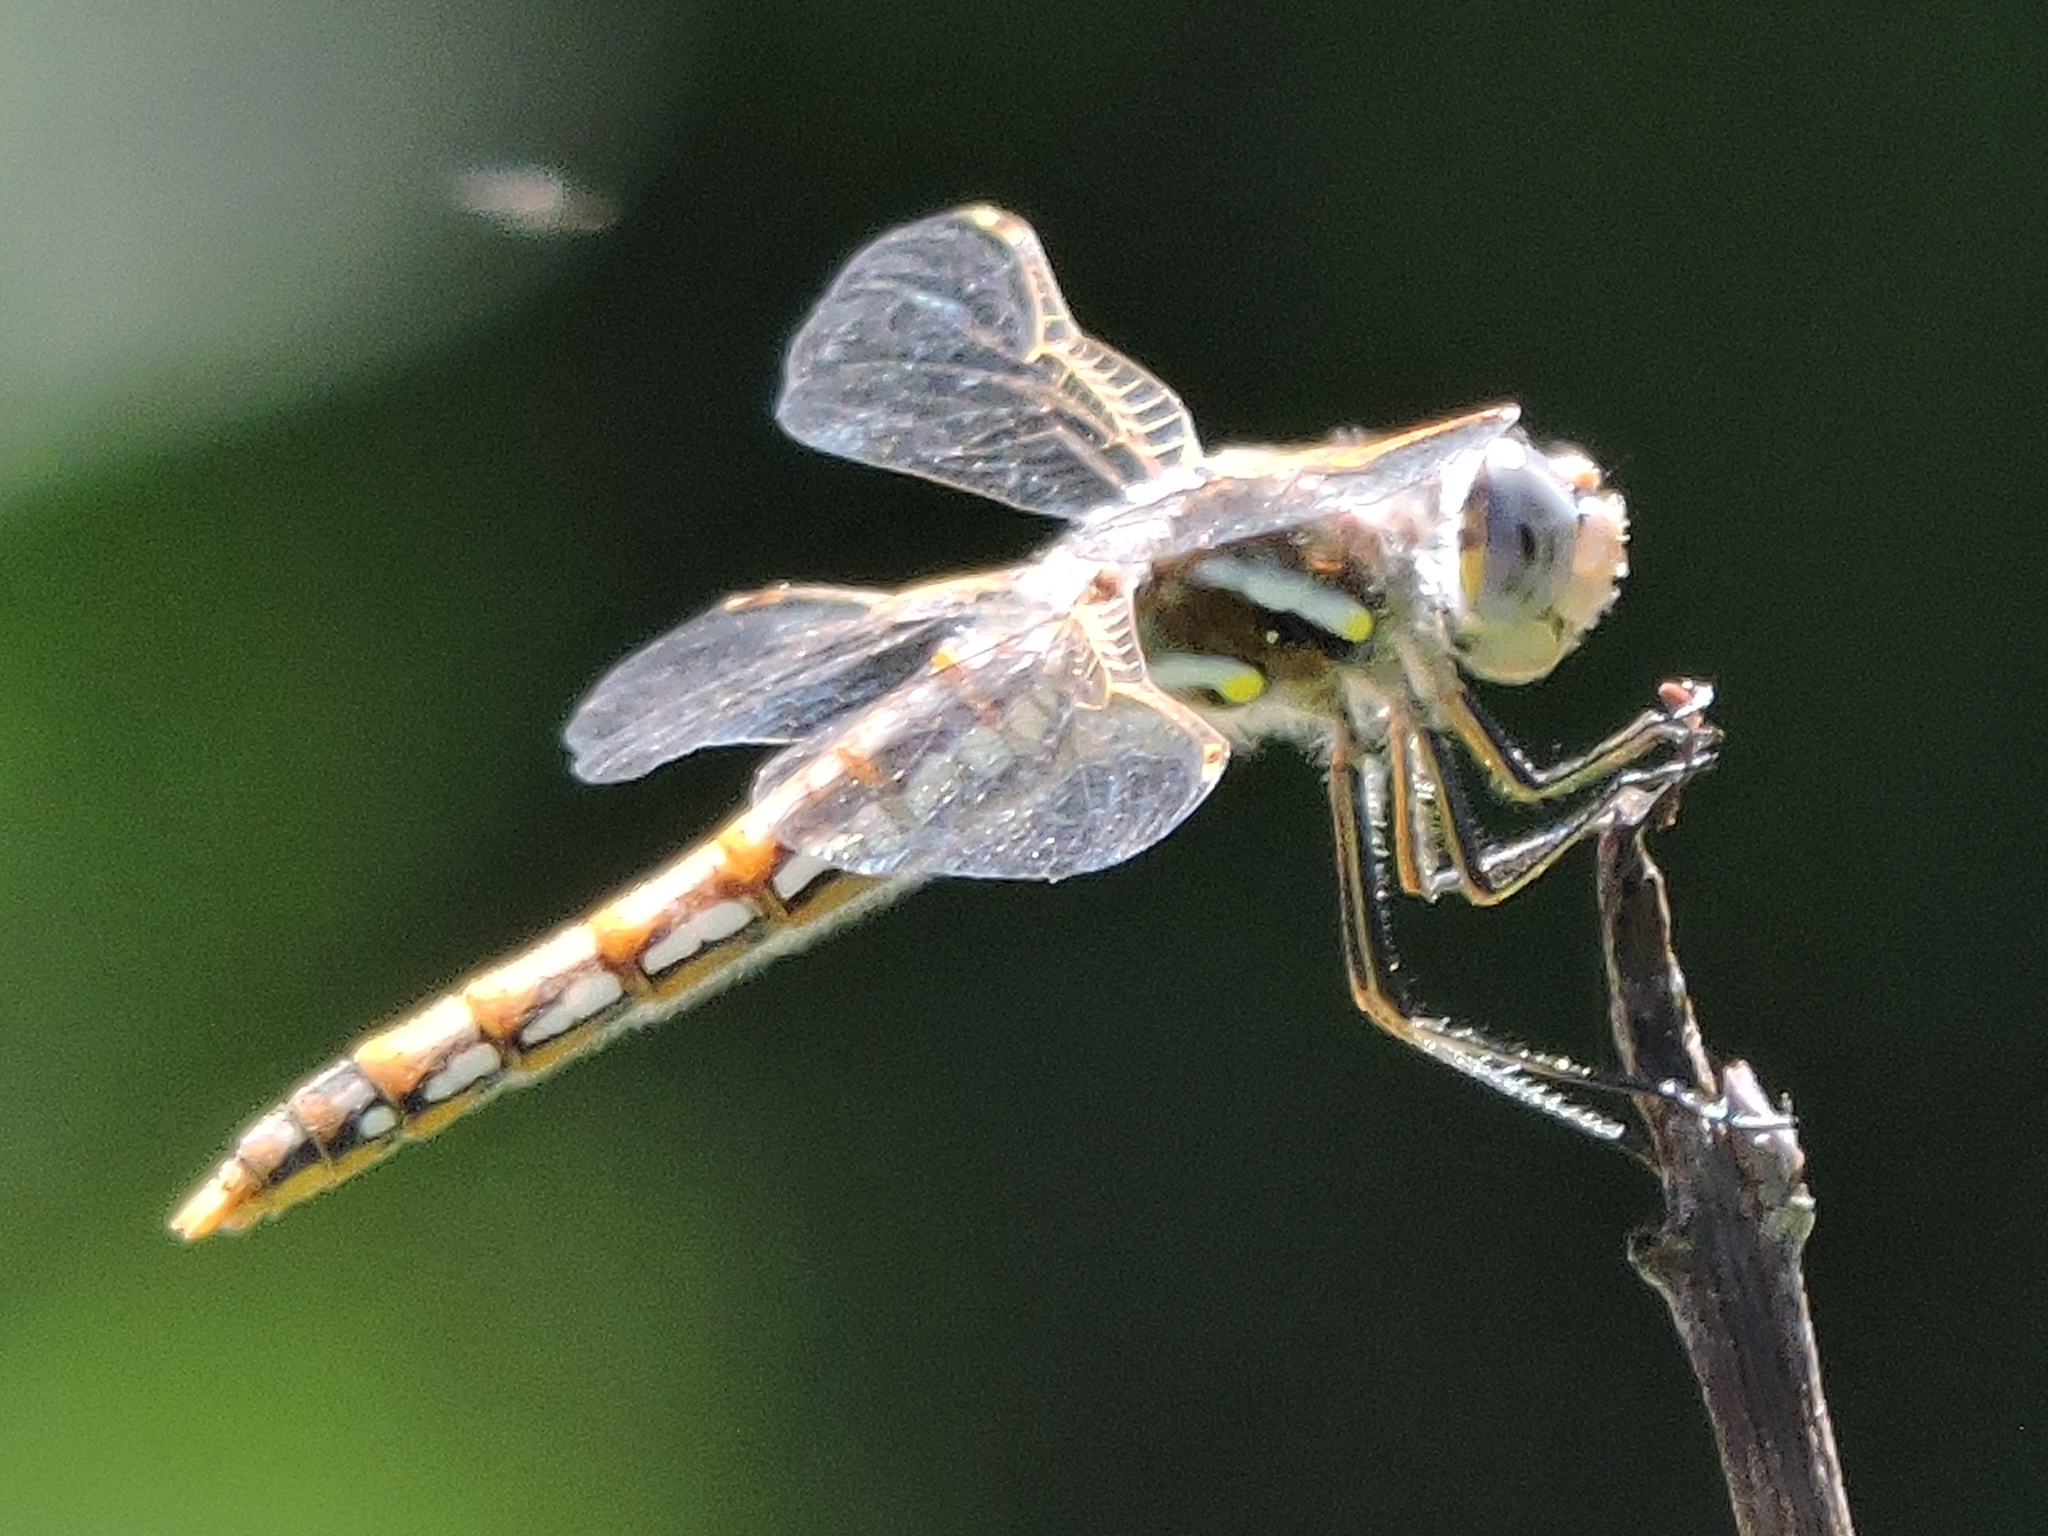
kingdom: Animalia
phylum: Arthropoda
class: Insecta
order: Odonata
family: Libellulidae
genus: Sympetrum
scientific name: Sympetrum corruptum
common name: Variegated meadowhawk
